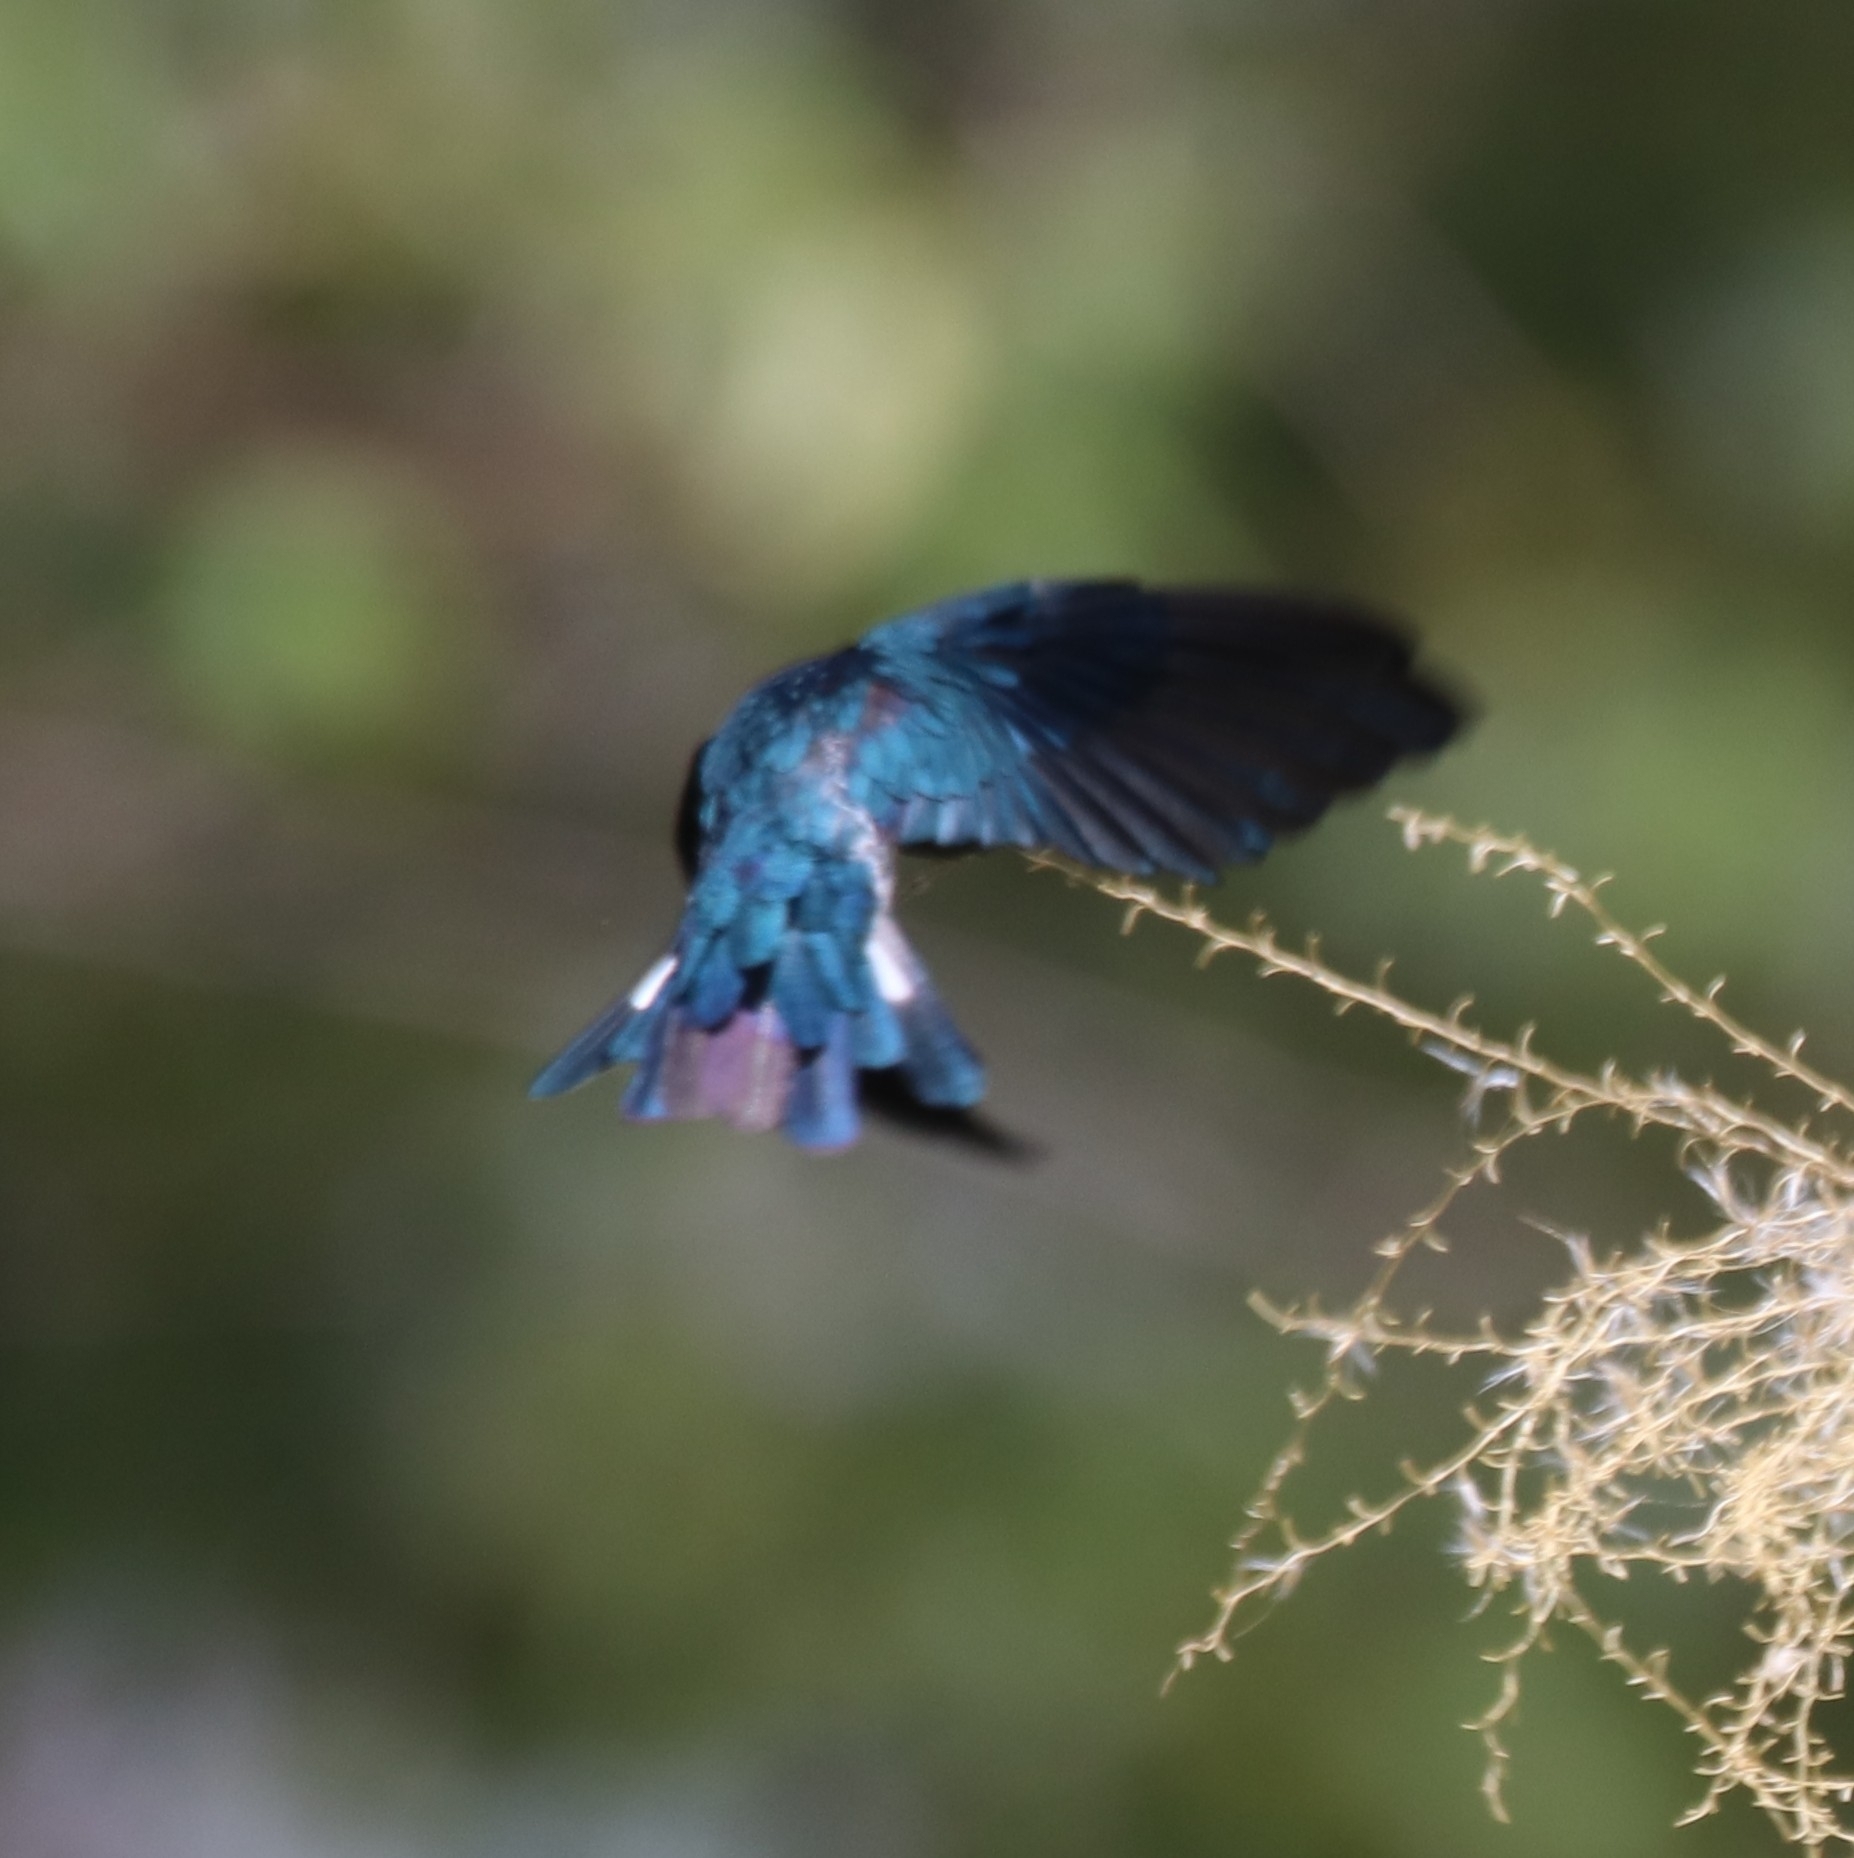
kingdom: Animalia
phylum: Chordata
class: Aves
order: Apodiformes
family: Apodidae
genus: Collocalia
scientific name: Collocalia esculenta
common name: Glossy swiftlet
